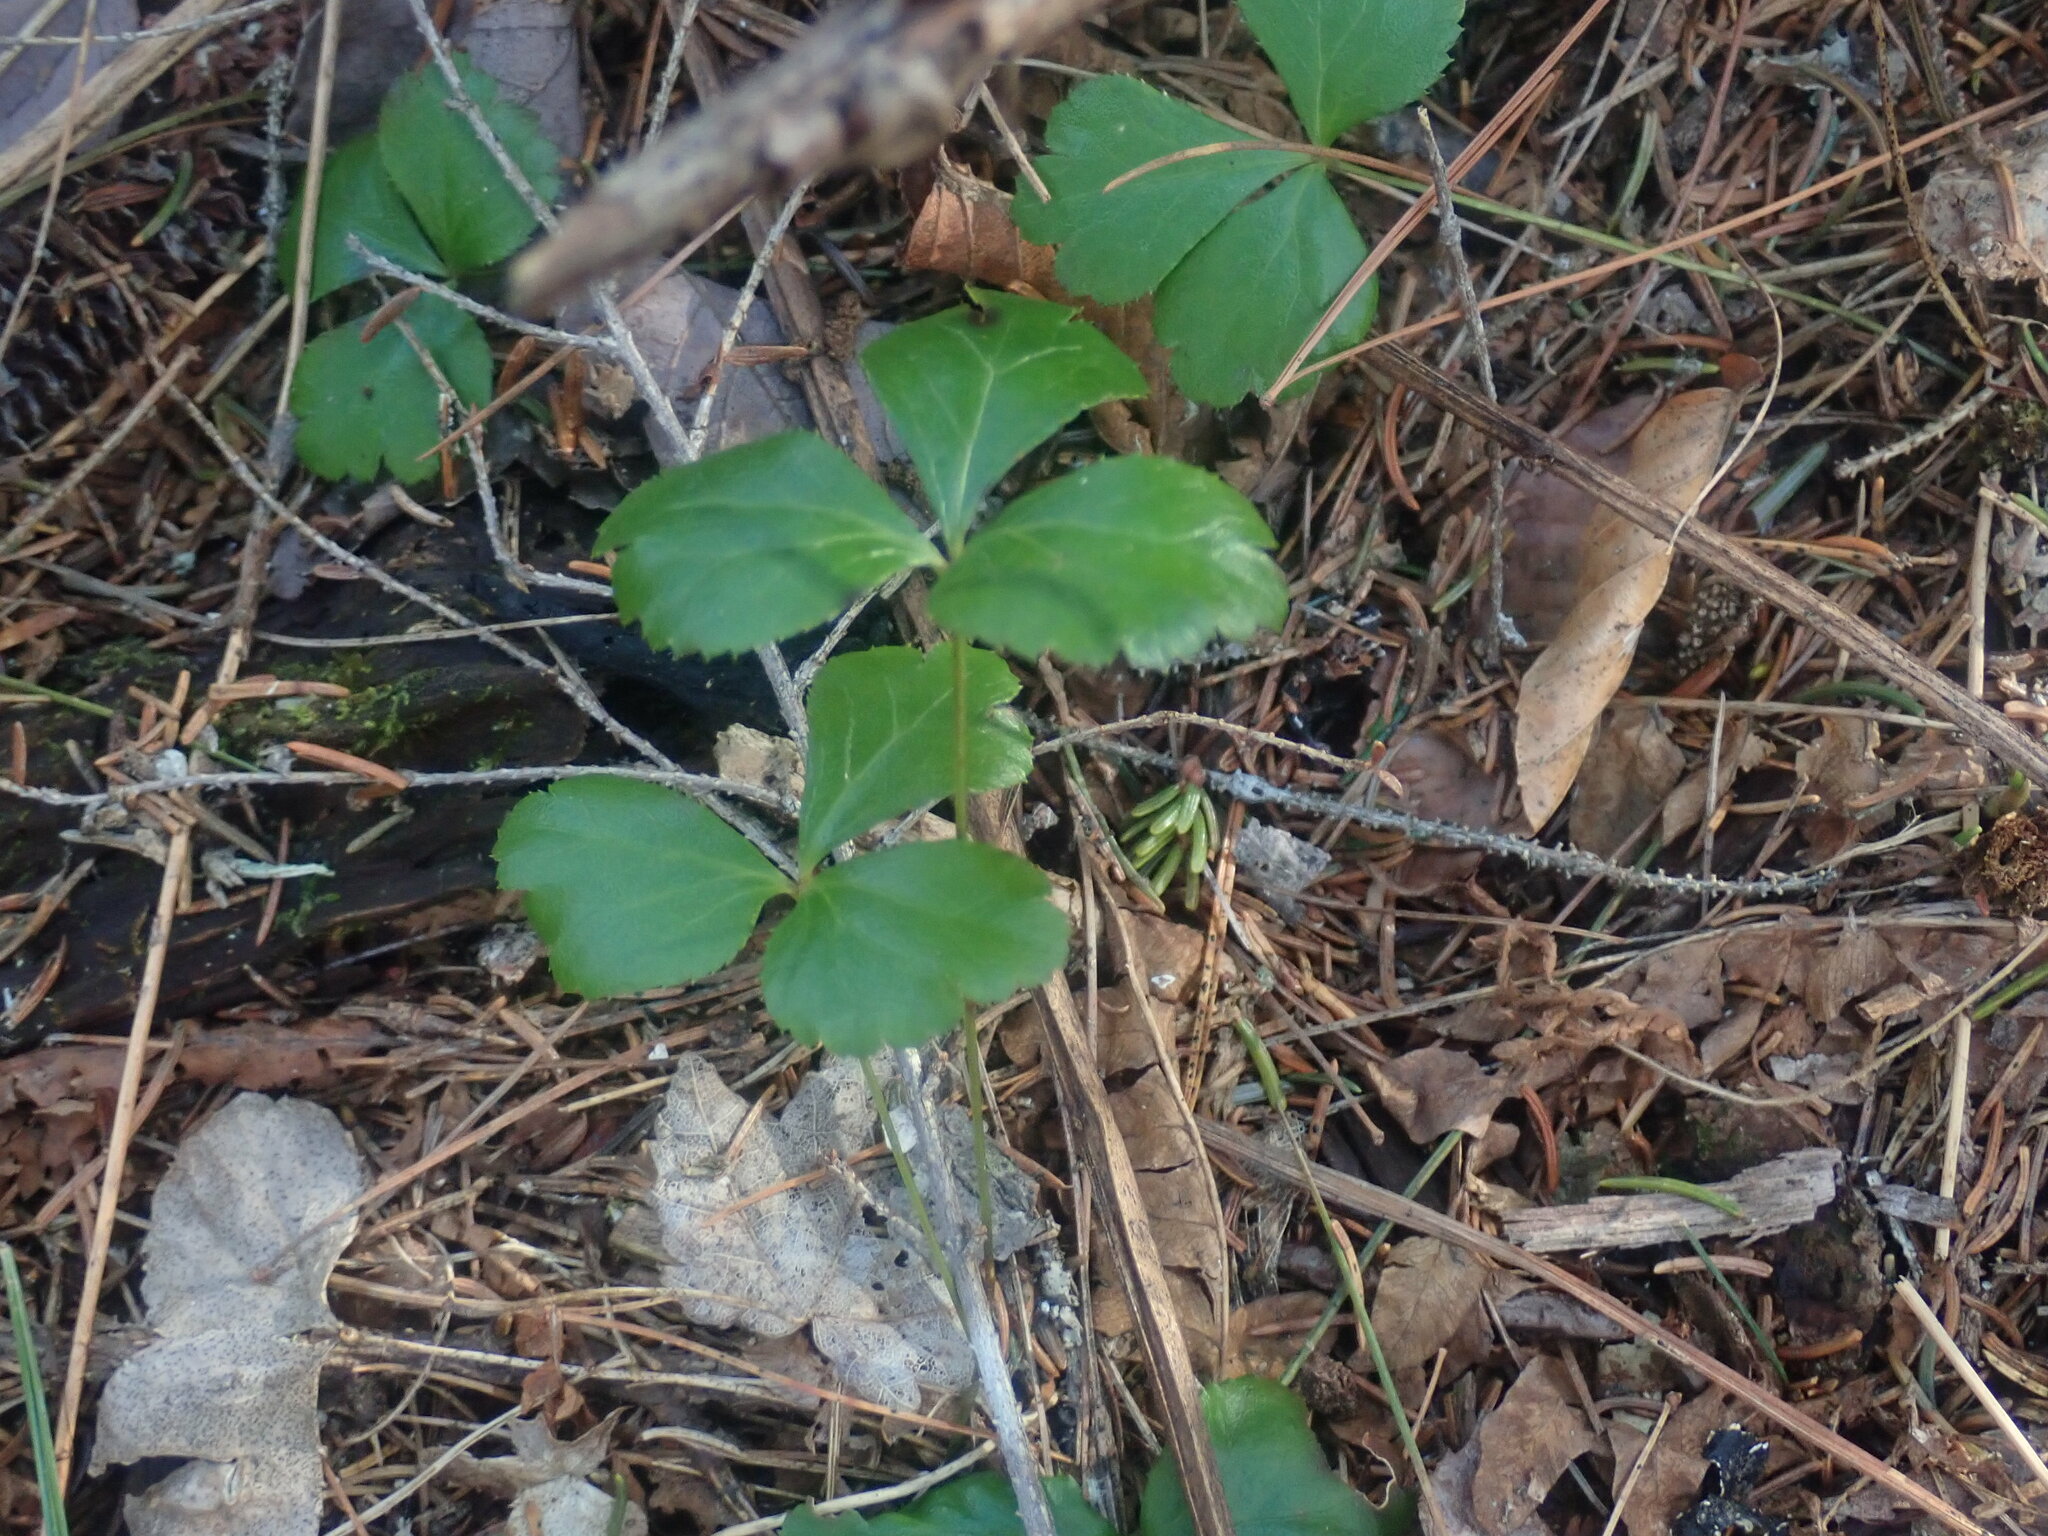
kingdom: Plantae
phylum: Tracheophyta
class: Magnoliopsida
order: Ranunculales
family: Ranunculaceae
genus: Coptis
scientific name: Coptis trifolia
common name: Canker-root
